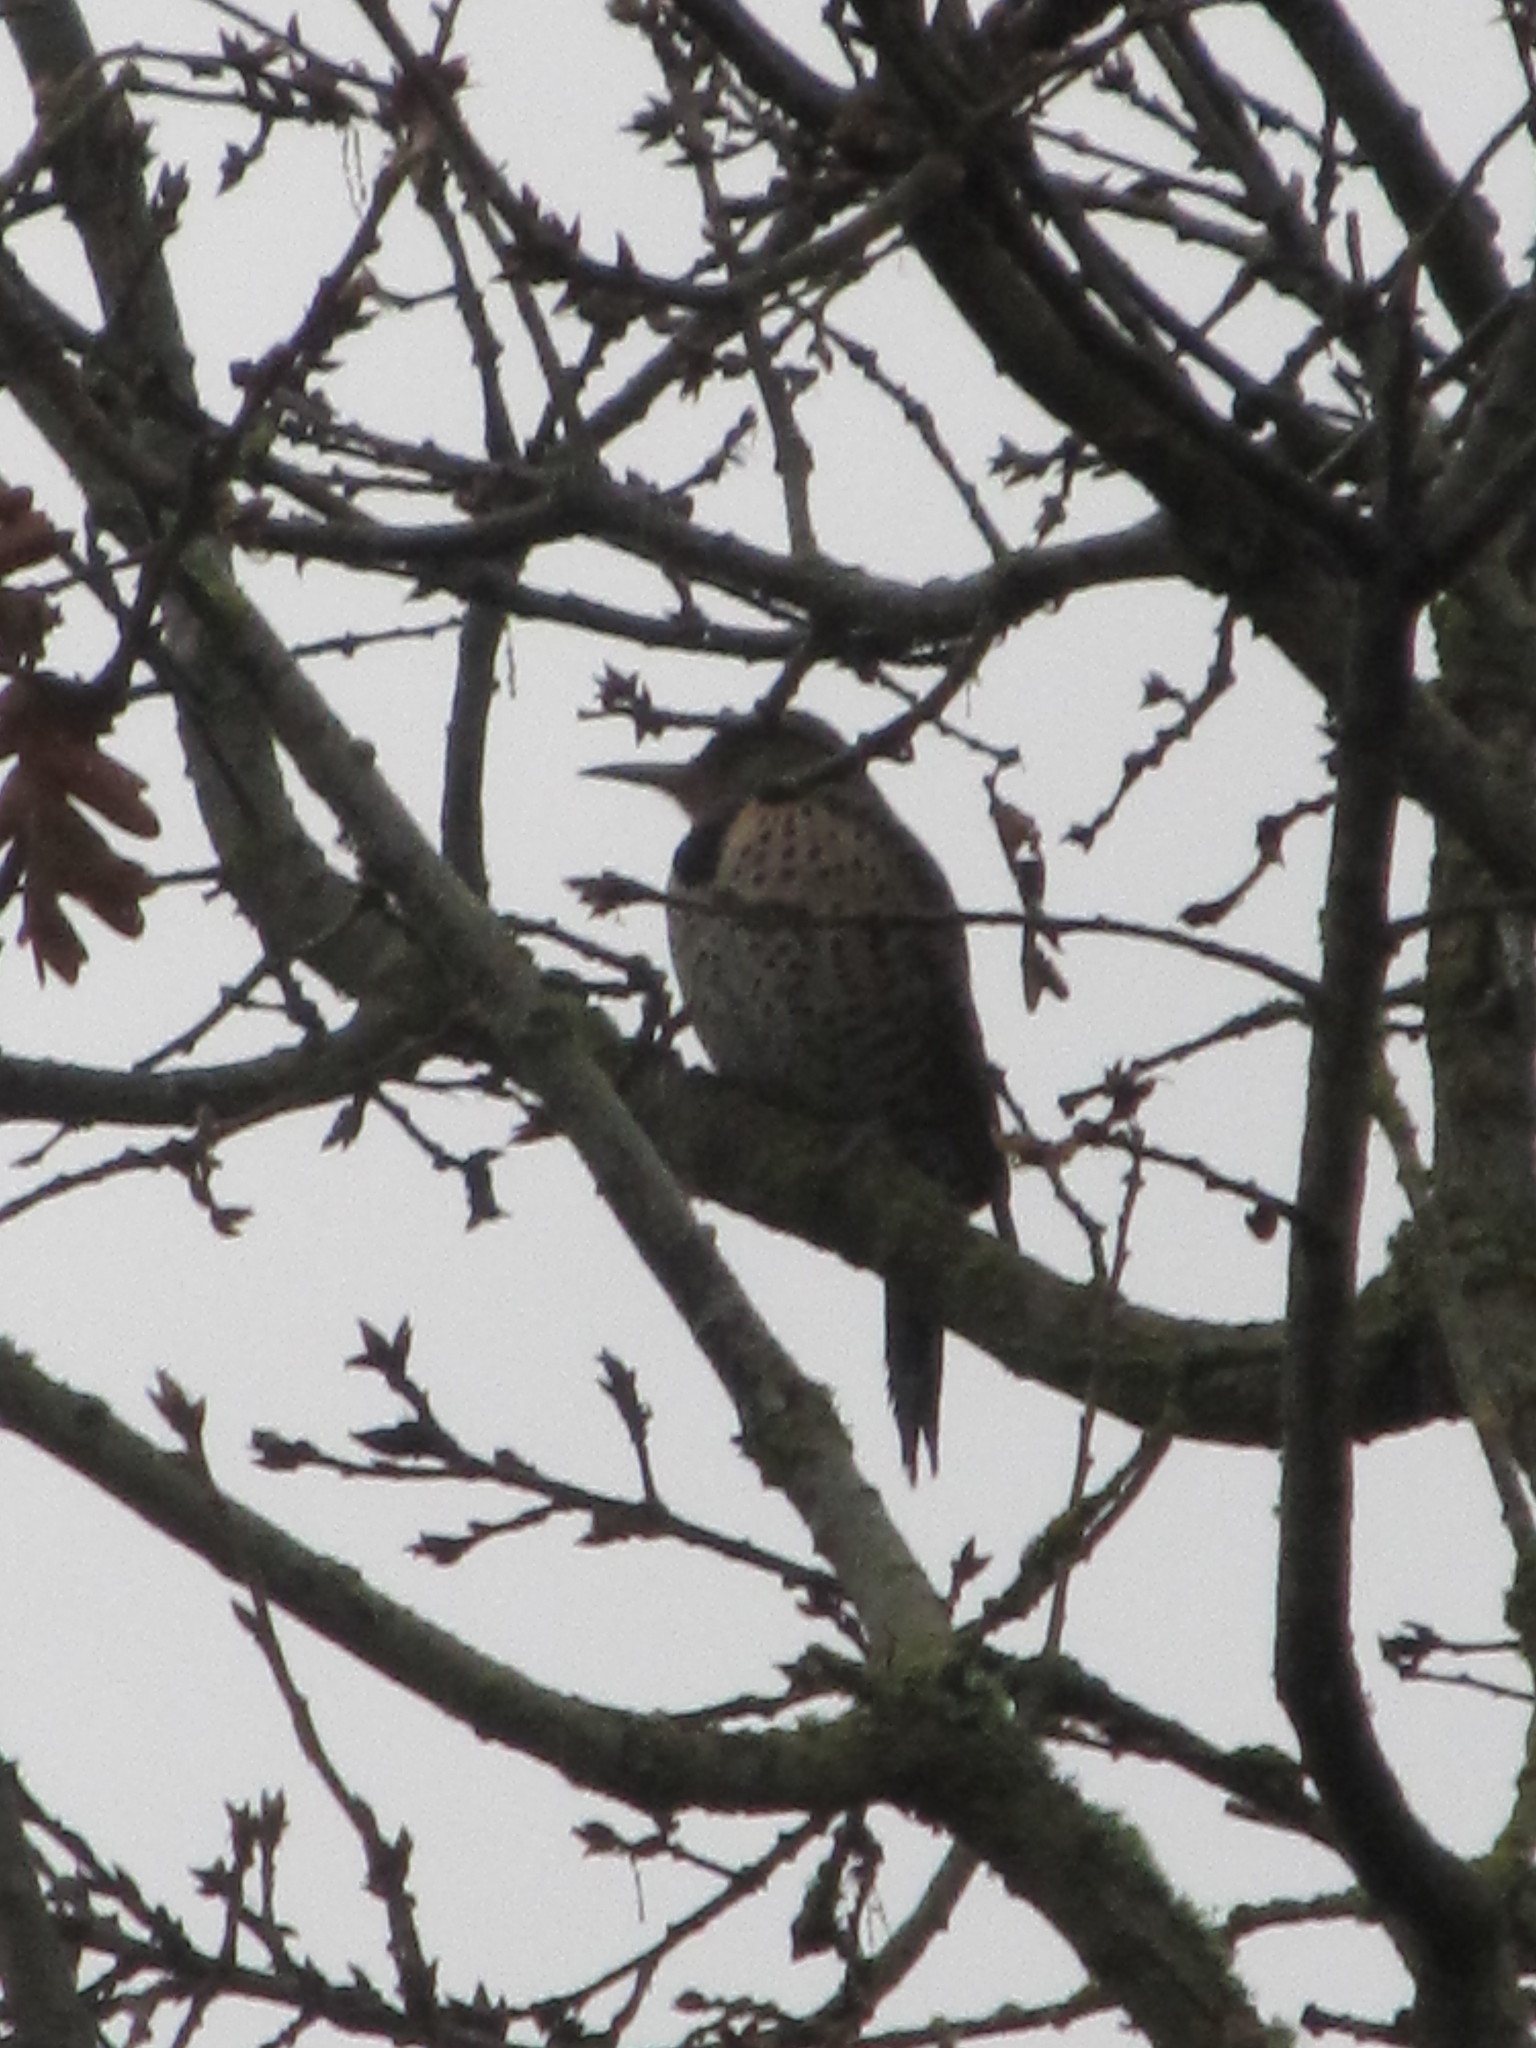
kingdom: Animalia
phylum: Chordata
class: Aves
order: Piciformes
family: Picidae
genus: Colaptes
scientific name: Colaptes auratus
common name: Northern flicker
